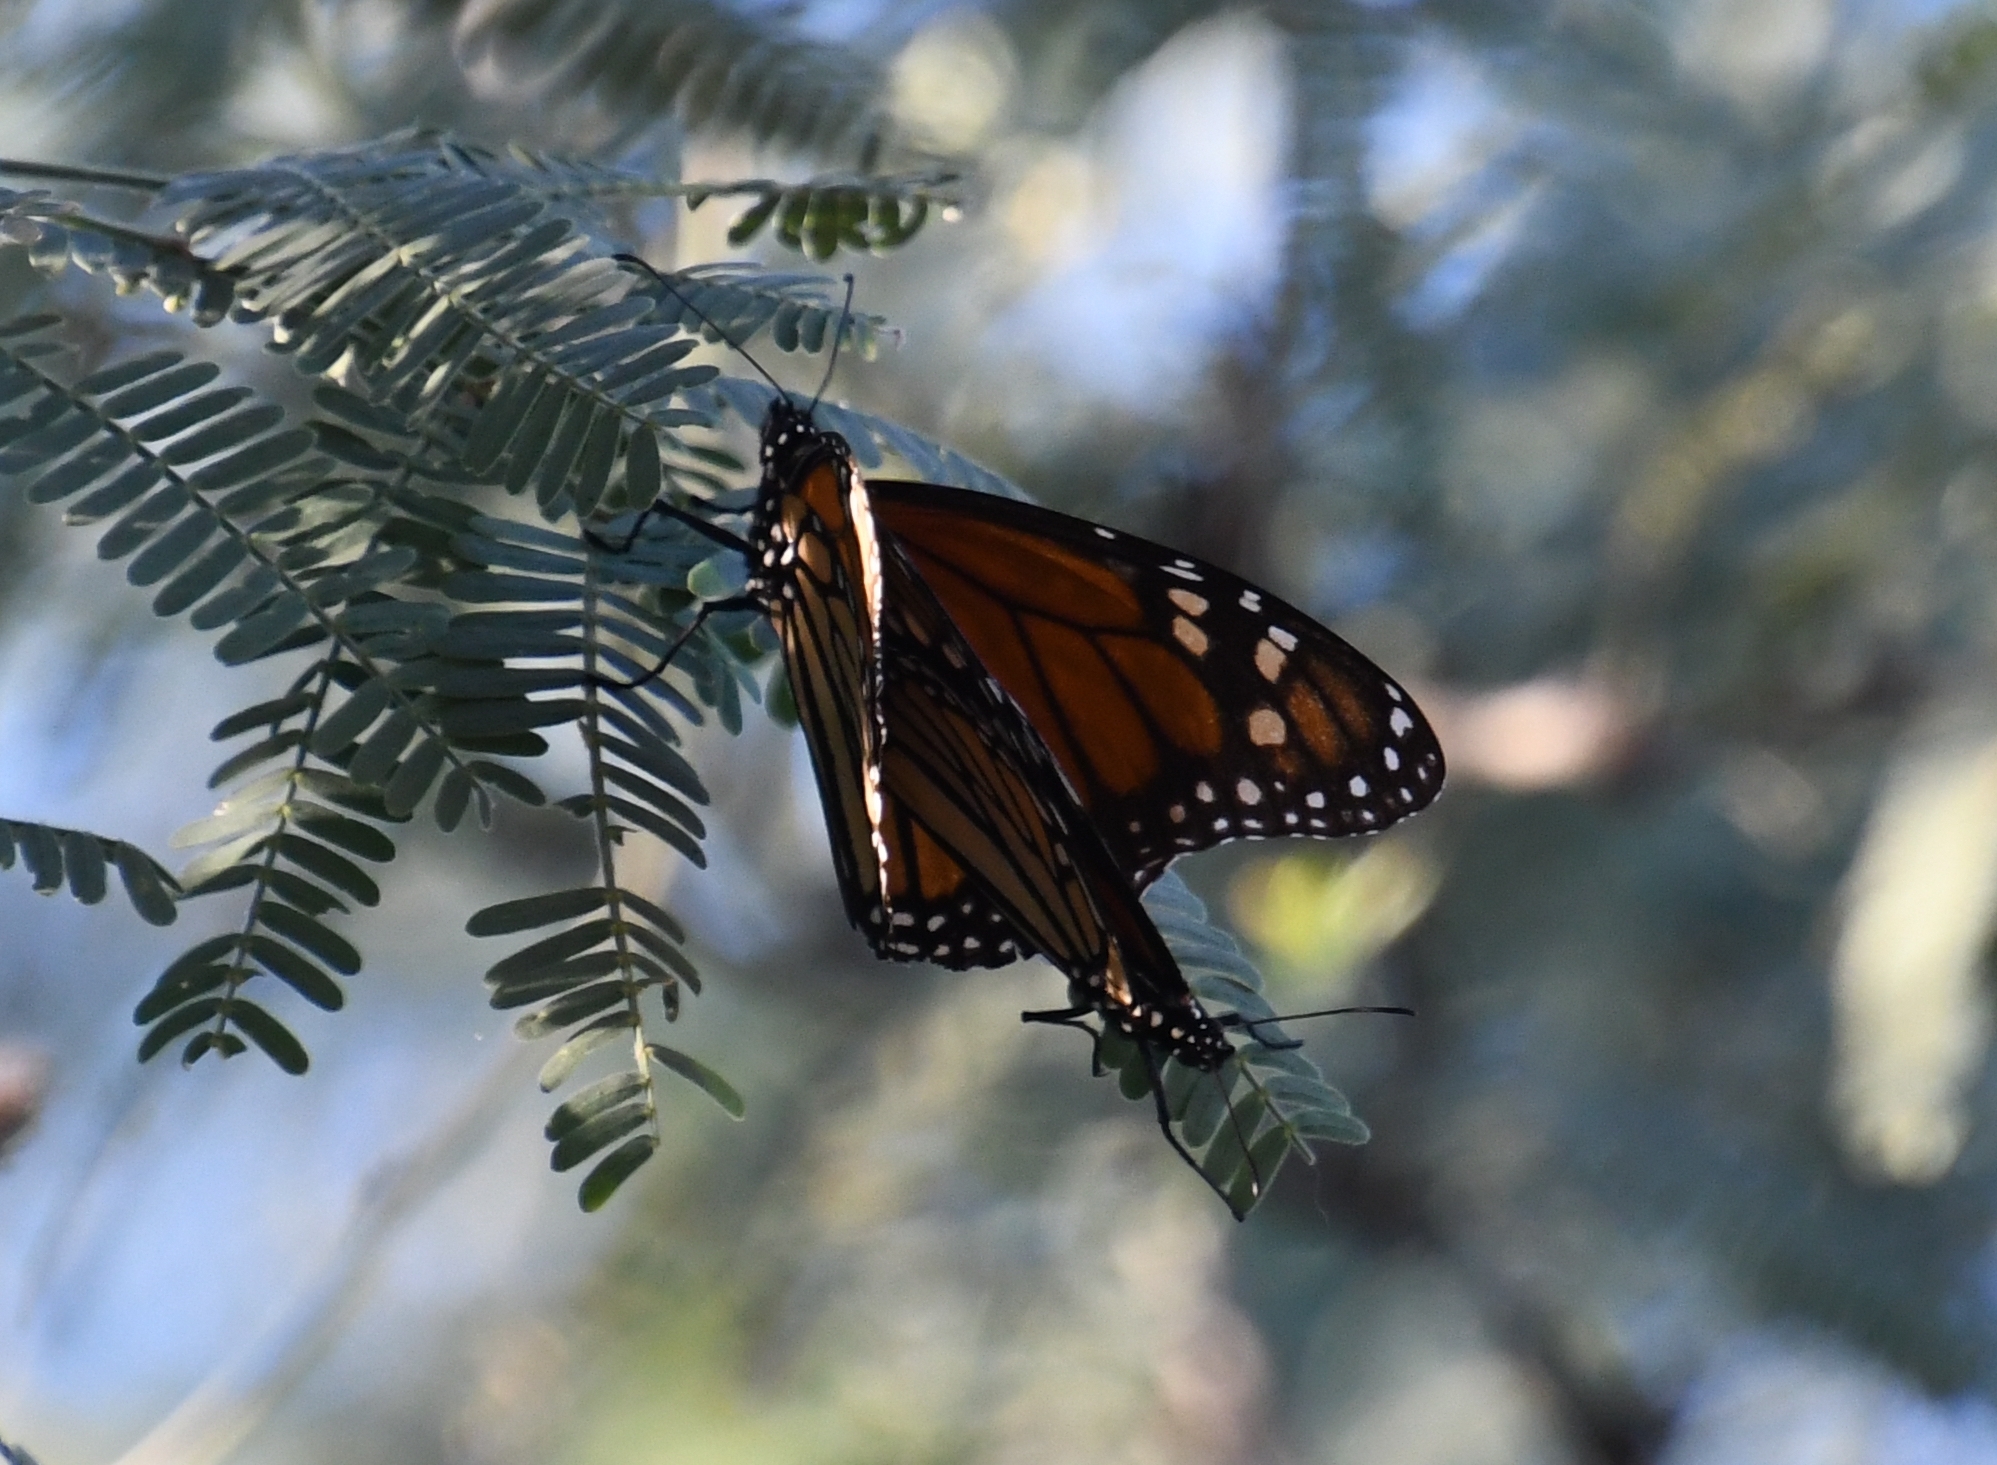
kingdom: Animalia
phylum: Arthropoda
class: Insecta
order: Lepidoptera
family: Nymphalidae
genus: Danaus
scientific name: Danaus plexippus
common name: Monarch
